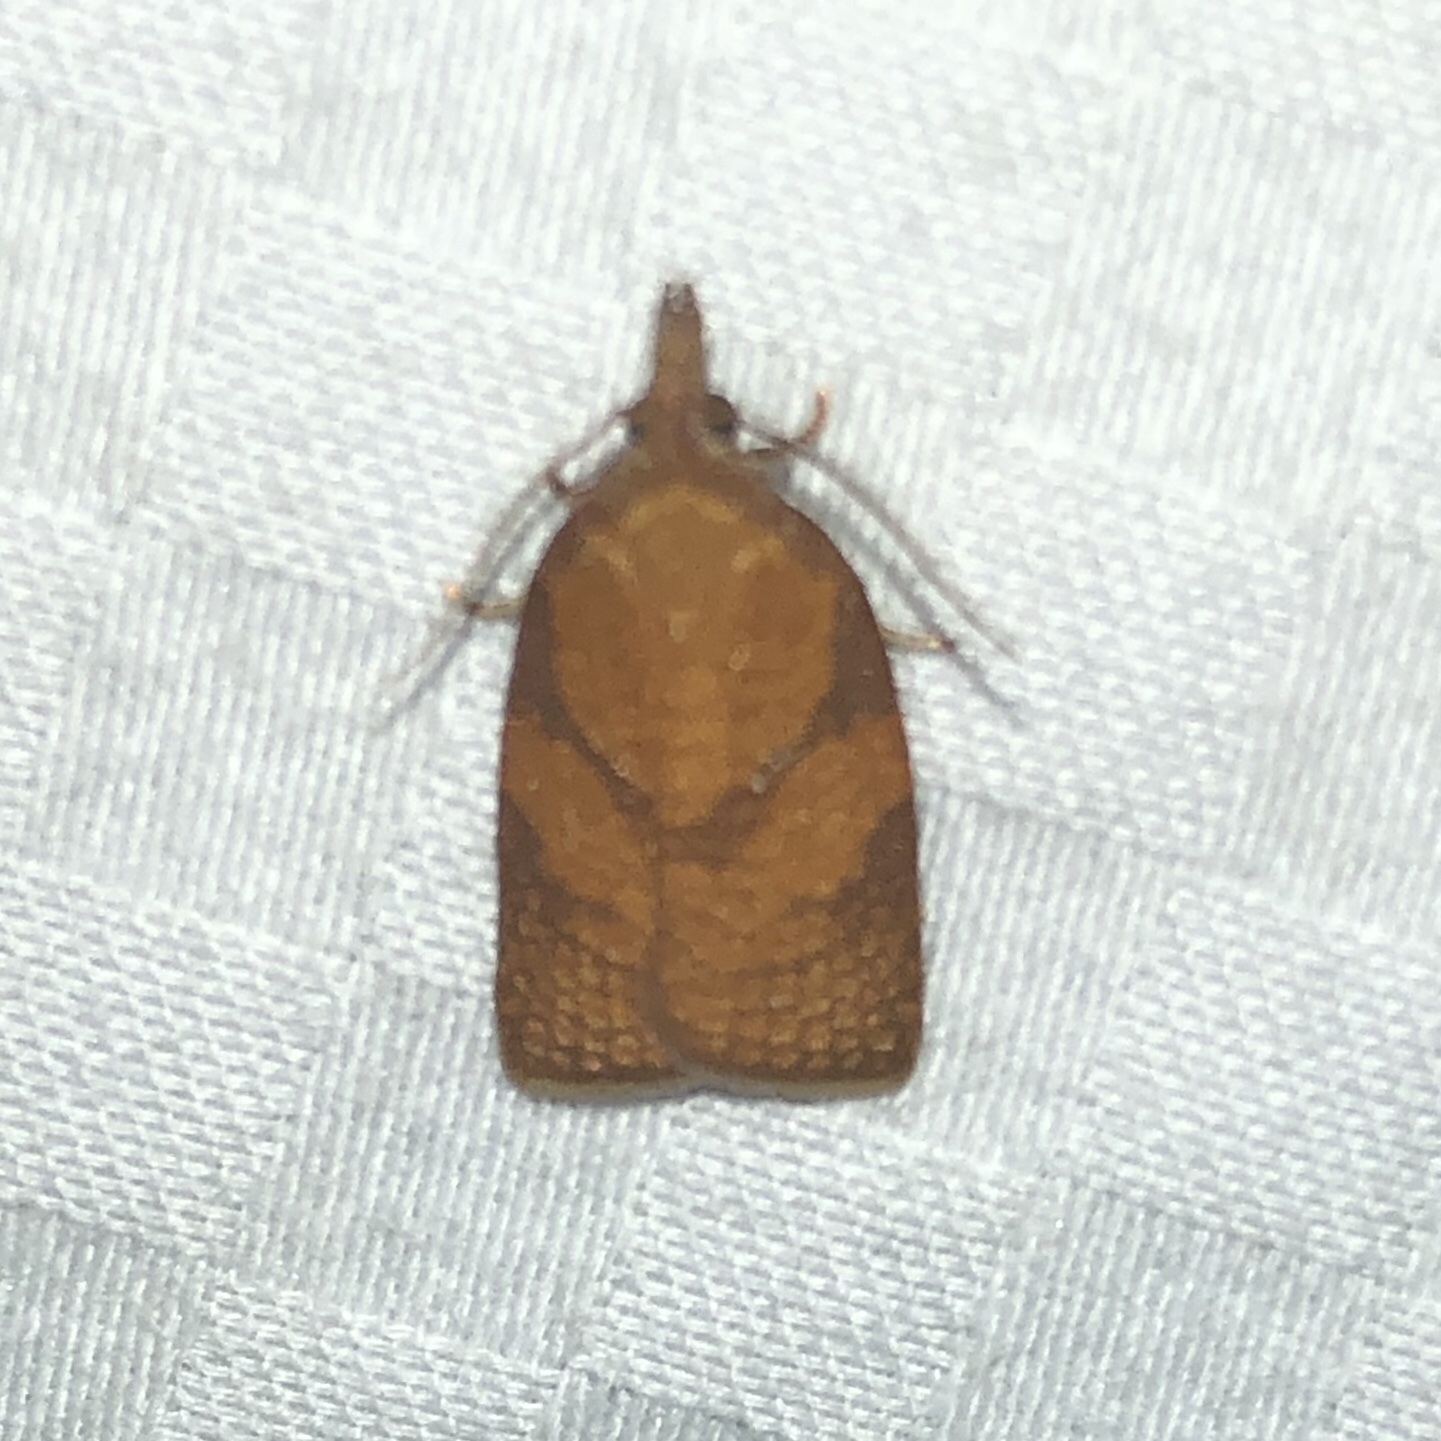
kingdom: Animalia
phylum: Arthropoda
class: Insecta
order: Lepidoptera
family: Tortricidae
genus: Cenopis
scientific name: Cenopis directana
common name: Chokecherry leafroller moth
